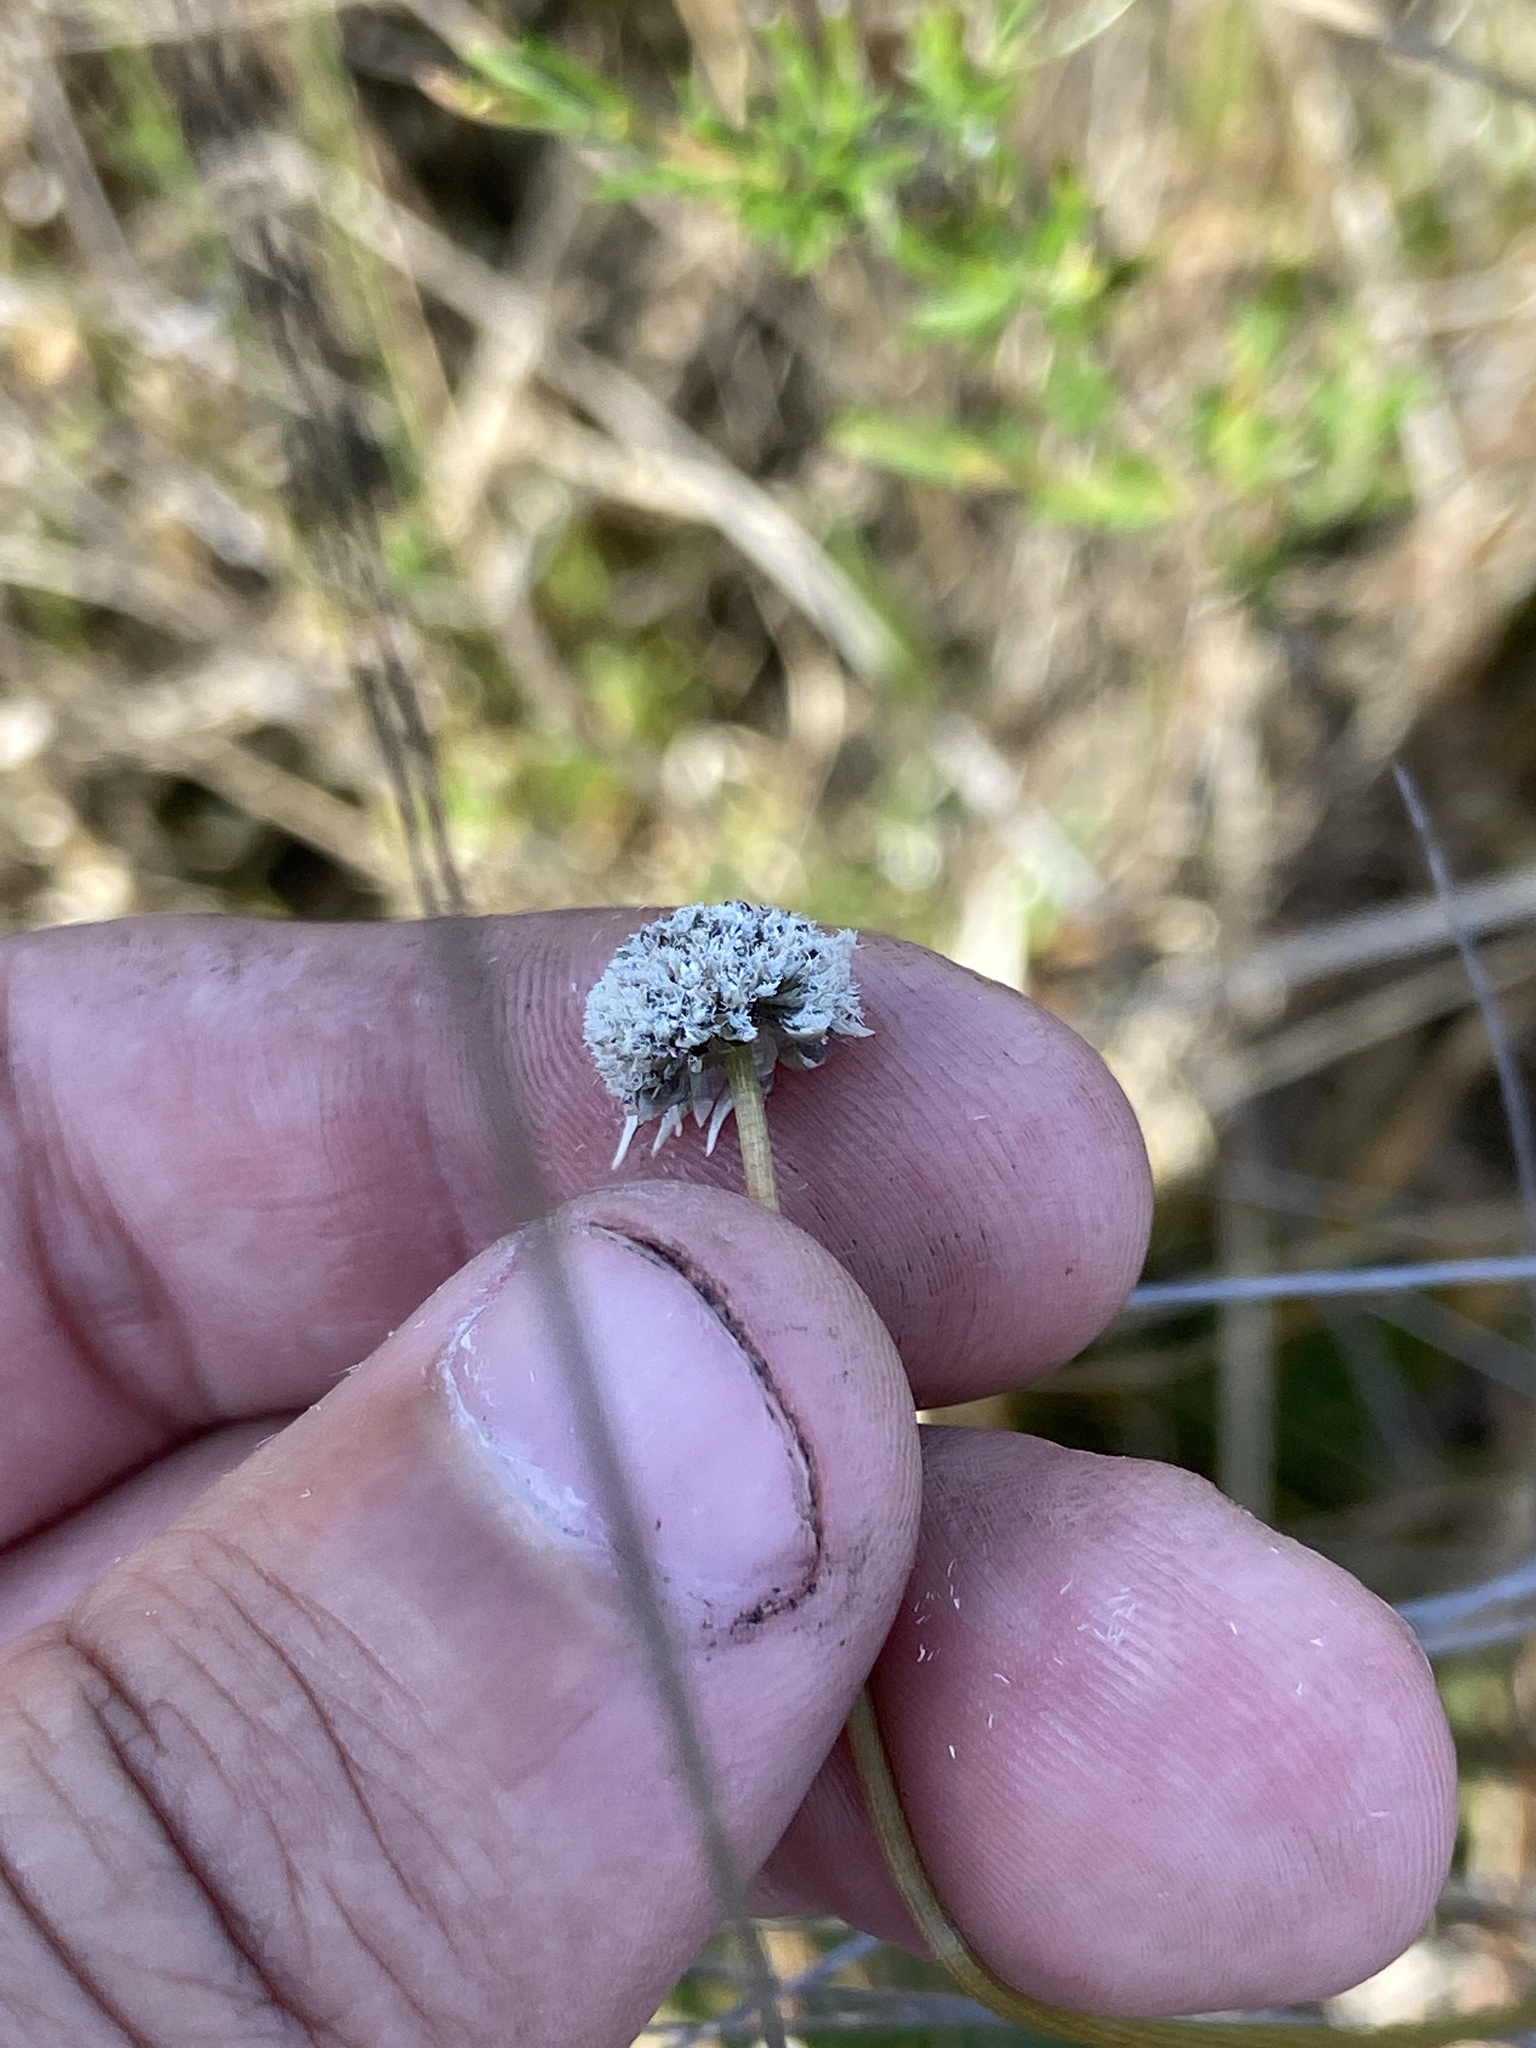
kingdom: Plantae
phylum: Tracheophyta
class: Liliopsida
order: Poales
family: Eriocaulaceae
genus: Eriocaulon
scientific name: Eriocaulon compressum
